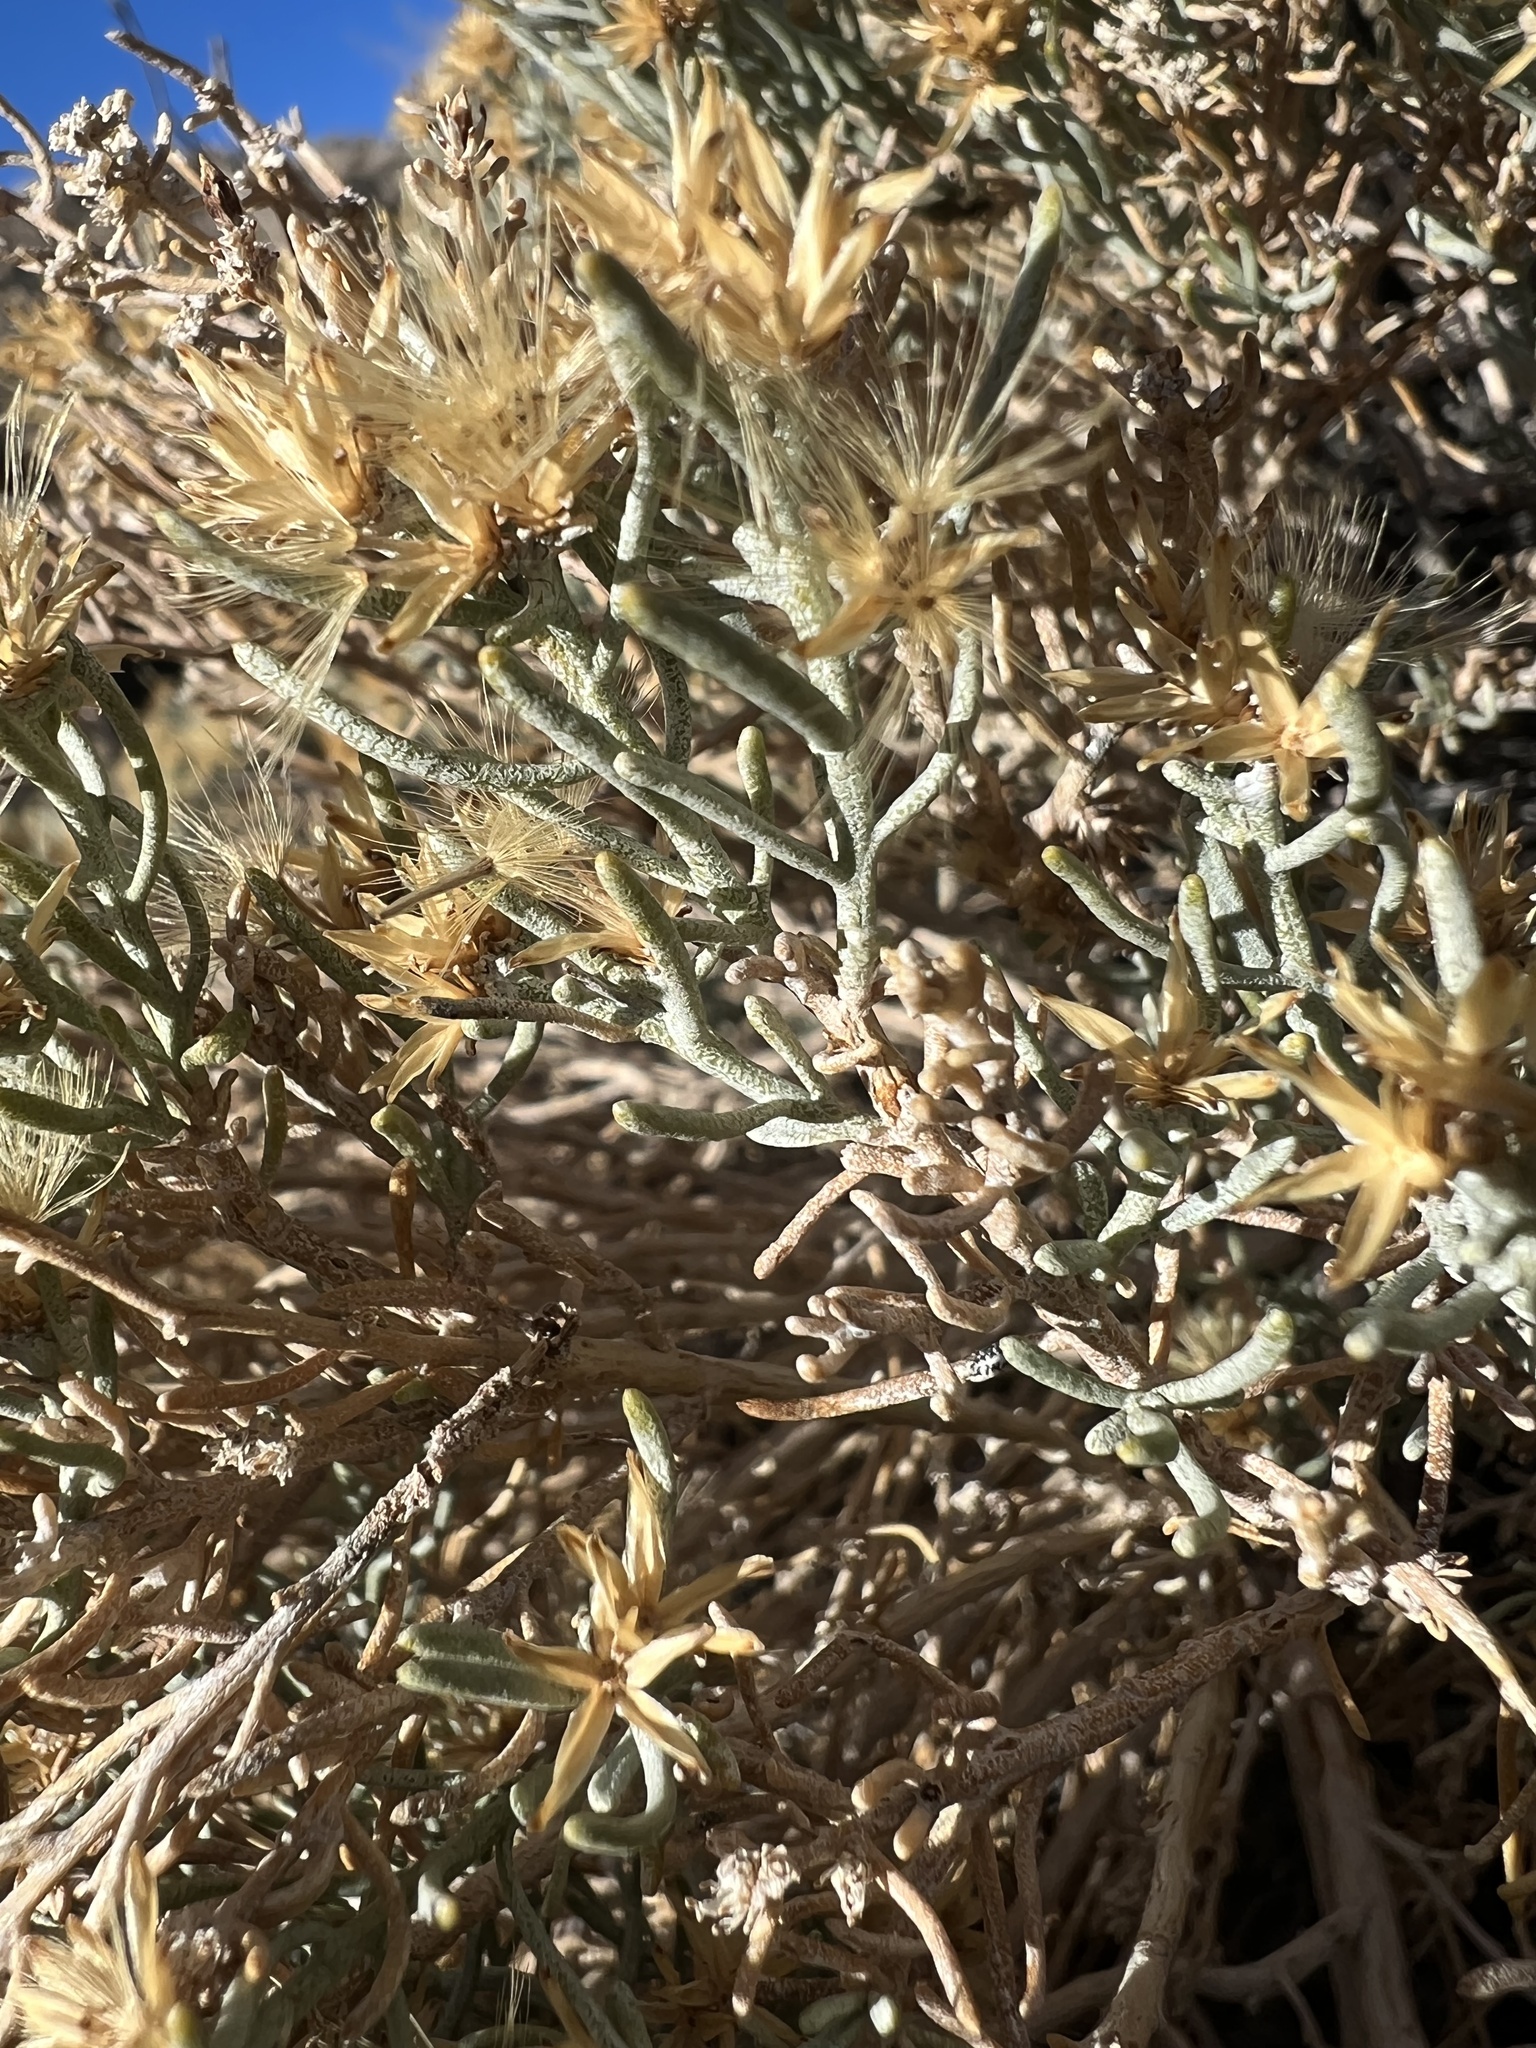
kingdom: Plantae
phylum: Tracheophyta
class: Magnoliopsida
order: Asterales
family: Asteraceae
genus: Ericameria
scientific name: Ericameria teretifolia
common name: Round-leaf rabbitbrush
